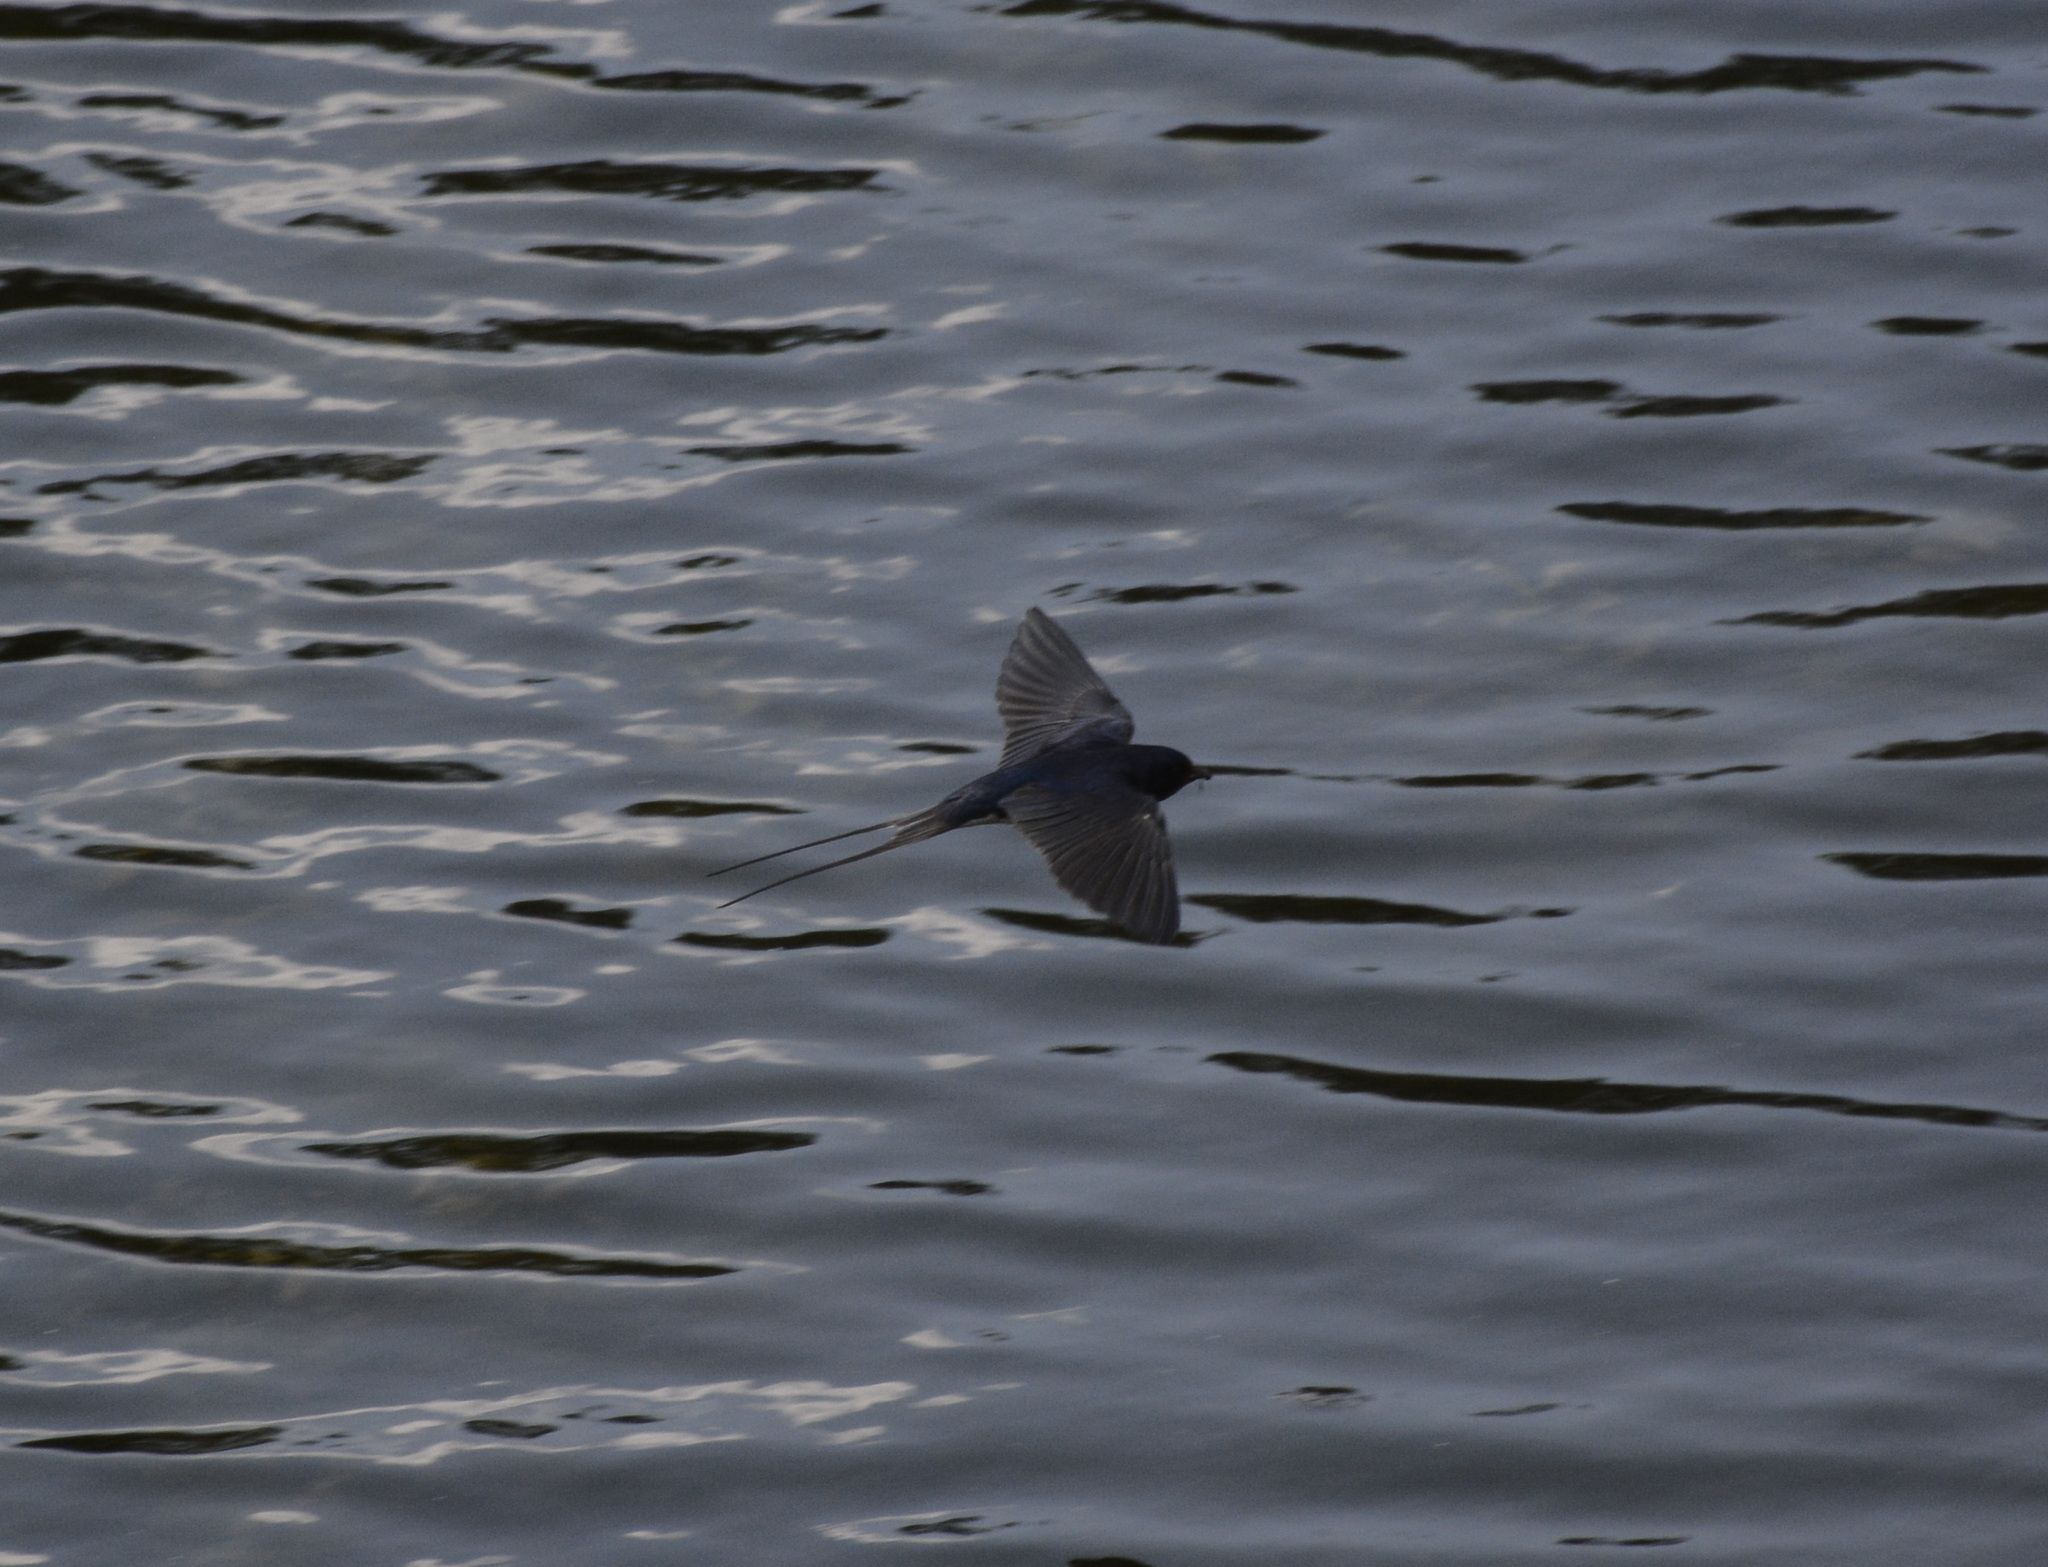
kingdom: Animalia
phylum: Chordata
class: Aves
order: Passeriformes
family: Hirundinidae
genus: Hirundo
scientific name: Hirundo rustica
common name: Barn swallow
